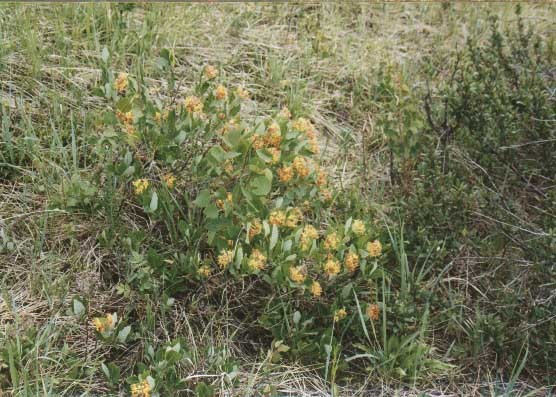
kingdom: Plantae
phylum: Tracheophyta
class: Magnoliopsida
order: Dipsacales
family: Caprifoliaceae
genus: Lonicera
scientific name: Lonicera dioica
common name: Limber honeysuckle
